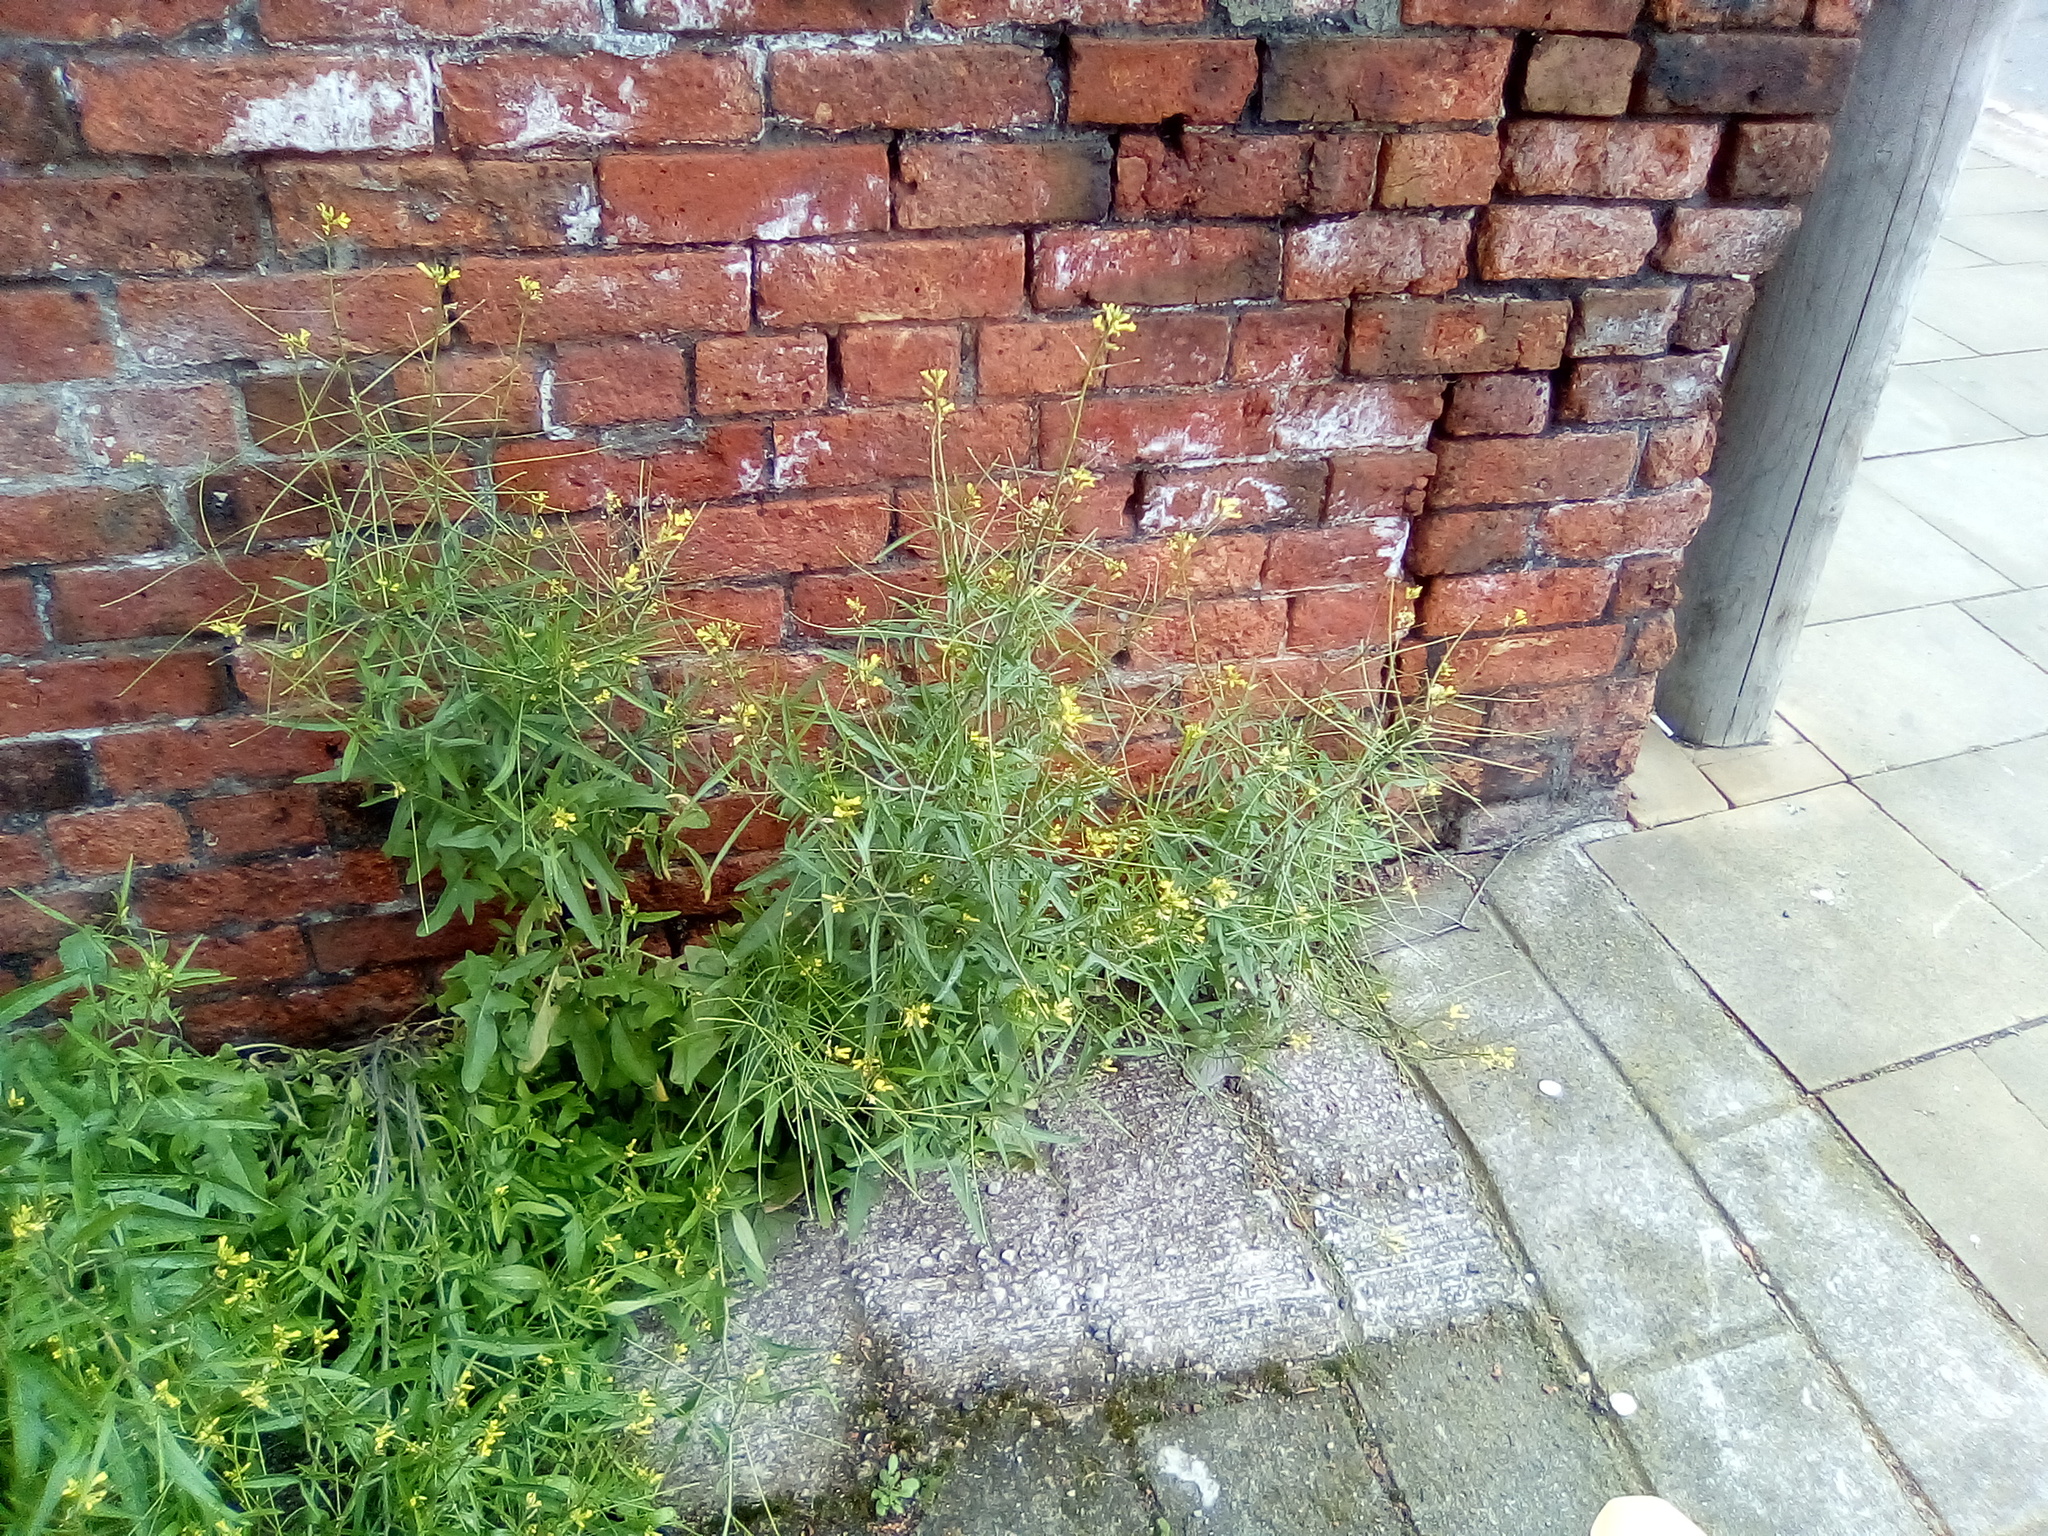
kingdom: Plantae
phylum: Tracheophyta
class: Magnoliopsida
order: Brassicales
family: Brassicaceae
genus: Sisymbrium
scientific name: Sisymbrium orientale
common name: Eastern rocket
